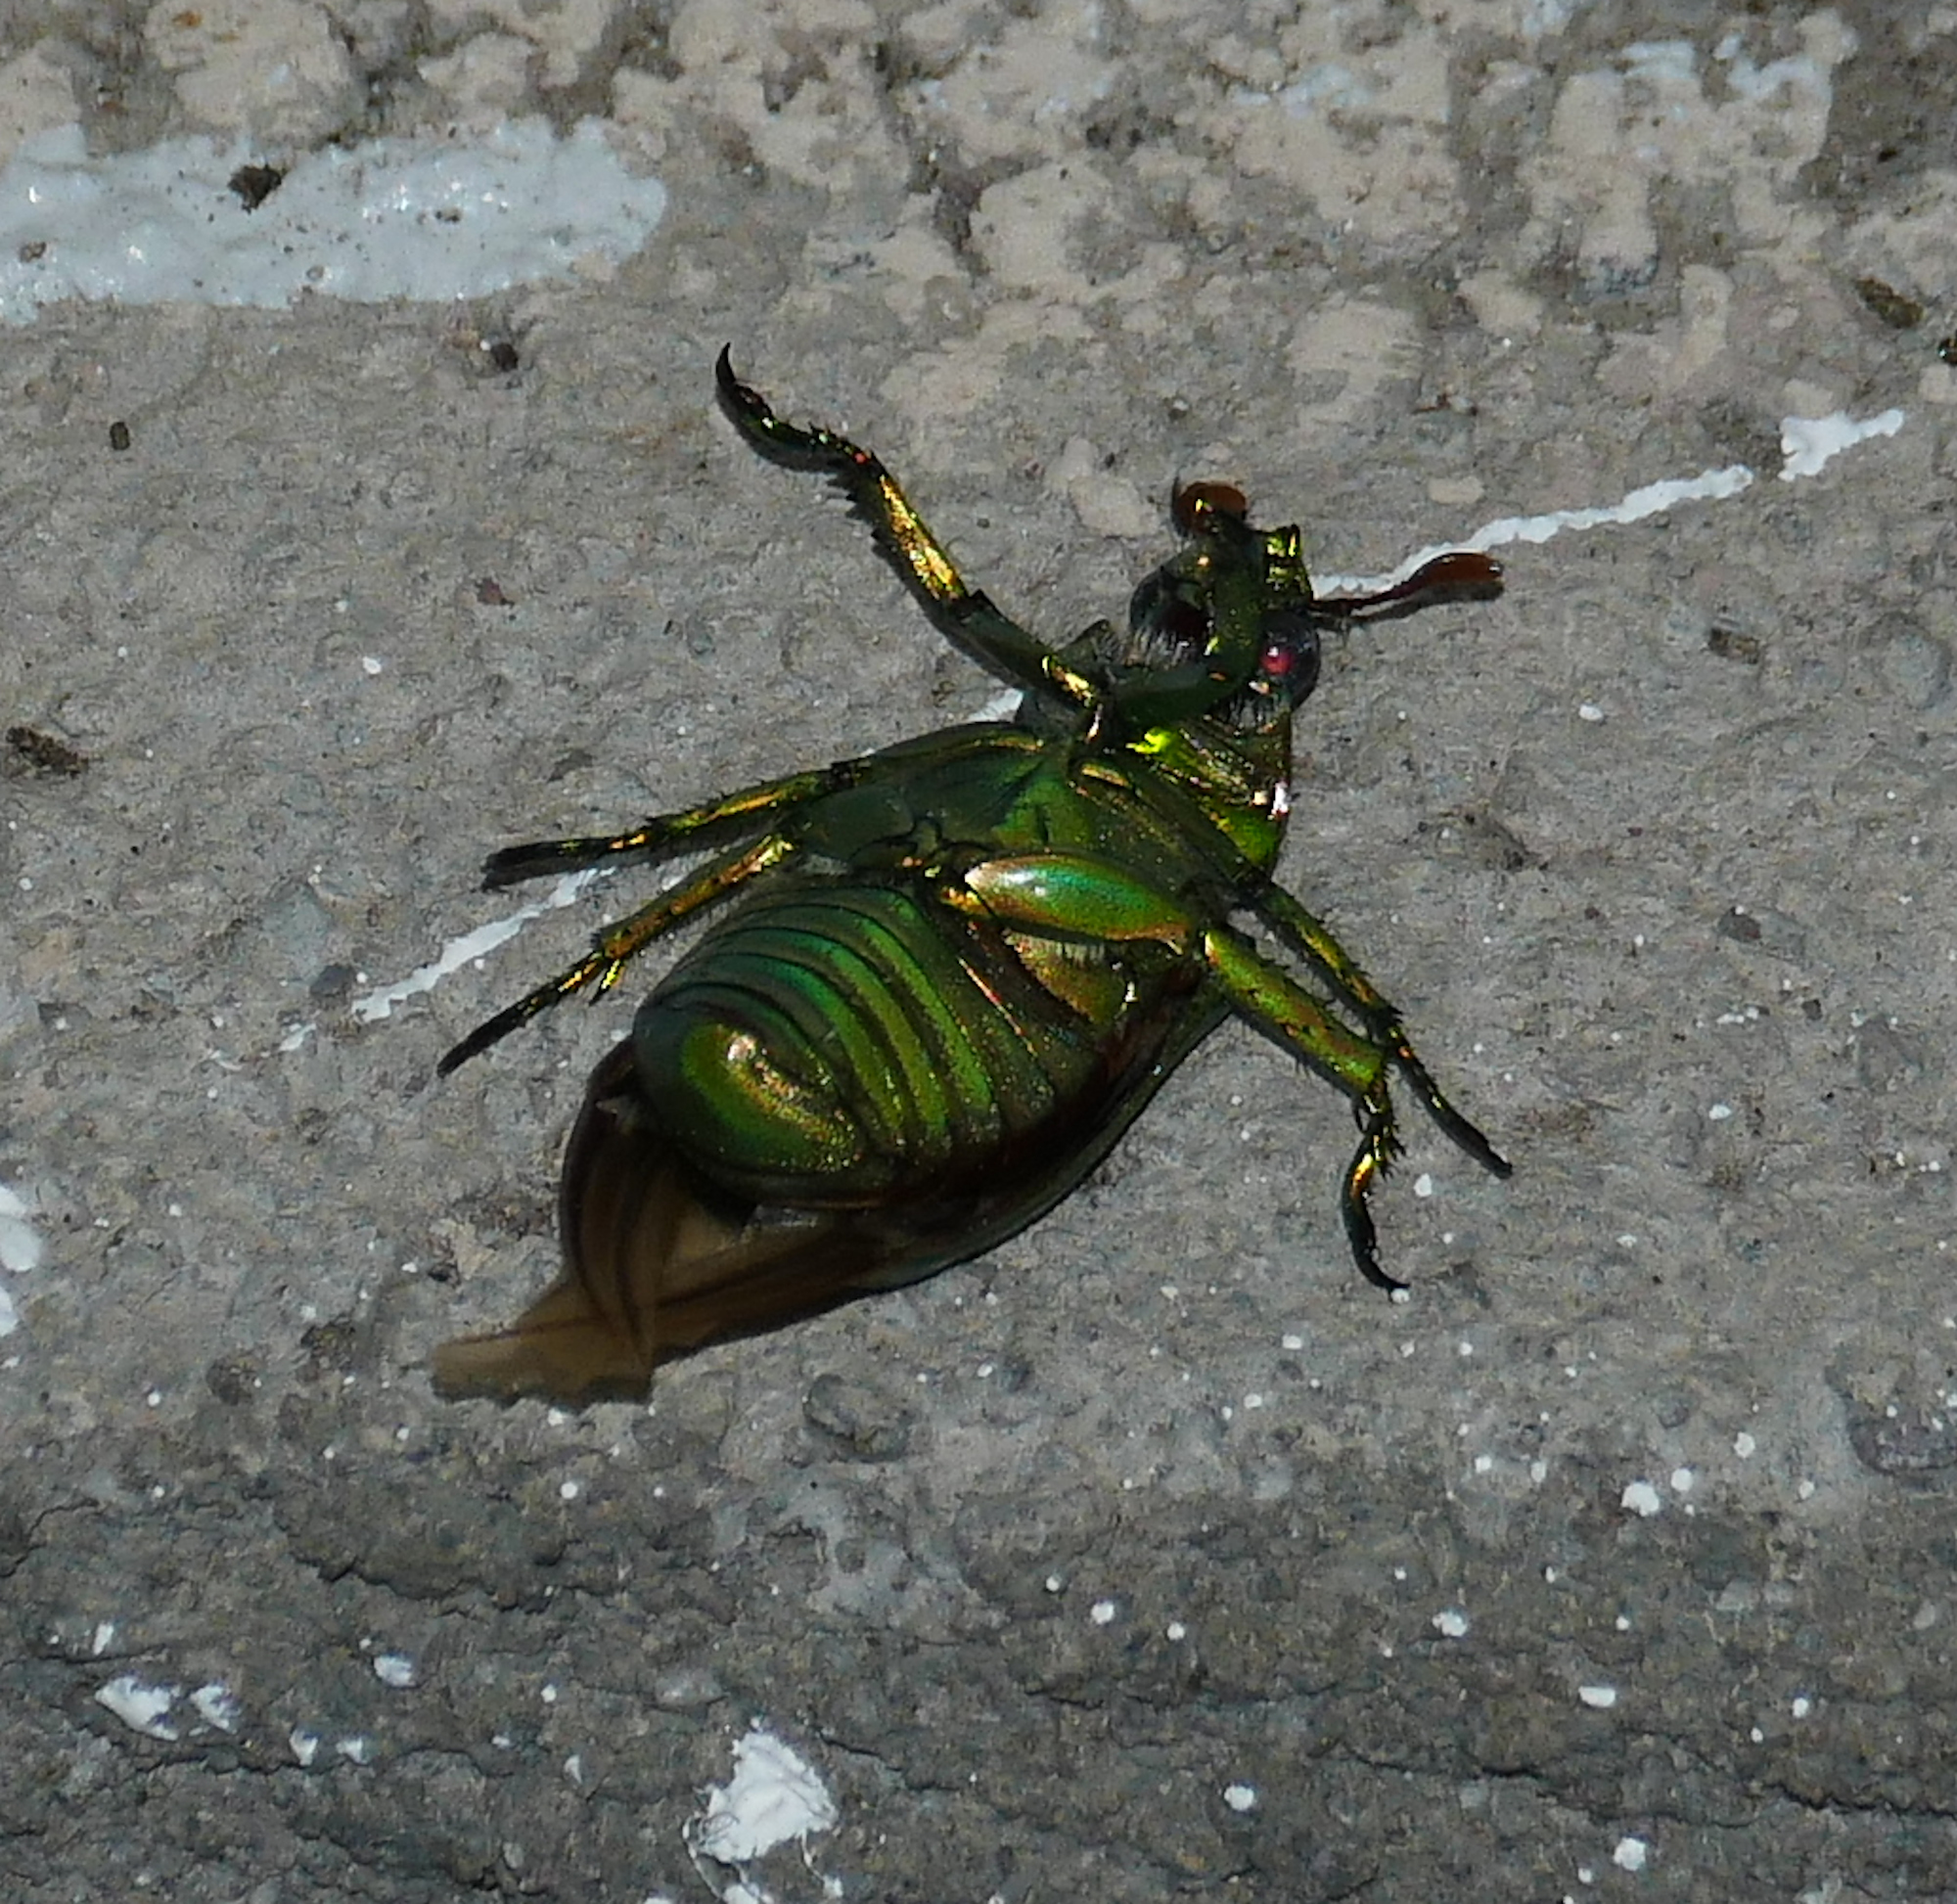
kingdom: Animalia
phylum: Arthropoda
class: Insecta
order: Coleoptera
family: Scarabaeidae
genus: Chrysina
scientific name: Chrysina gloriosa
